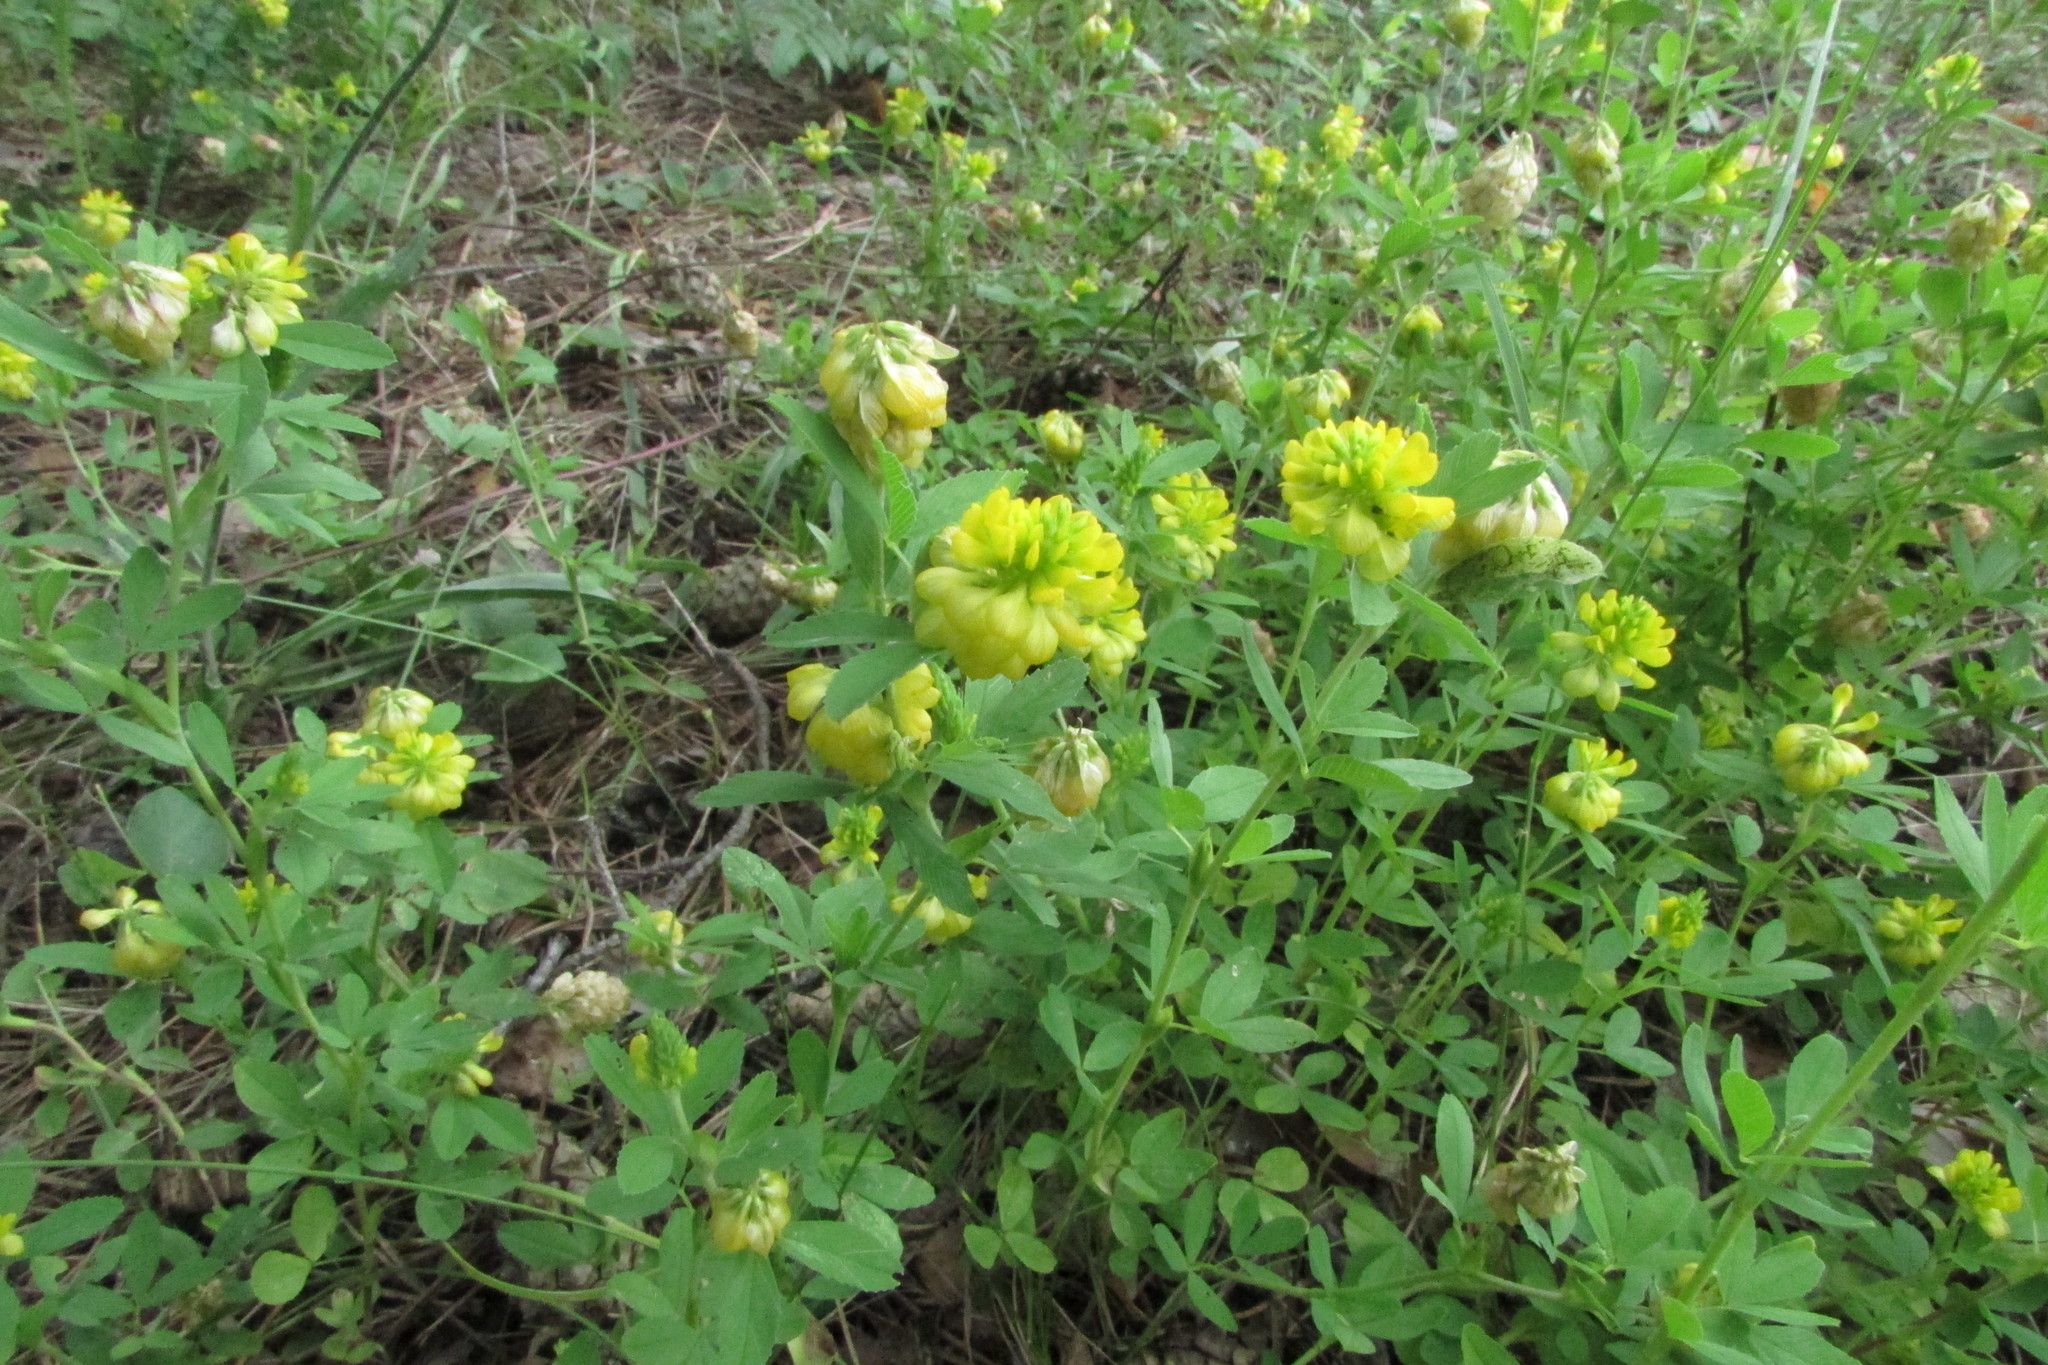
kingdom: Plantae
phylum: Tracheophyta
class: Magnoliopsida
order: Fabales
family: Fabaceae
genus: Trifolium
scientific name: Trifolium aureum
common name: Golden clover
